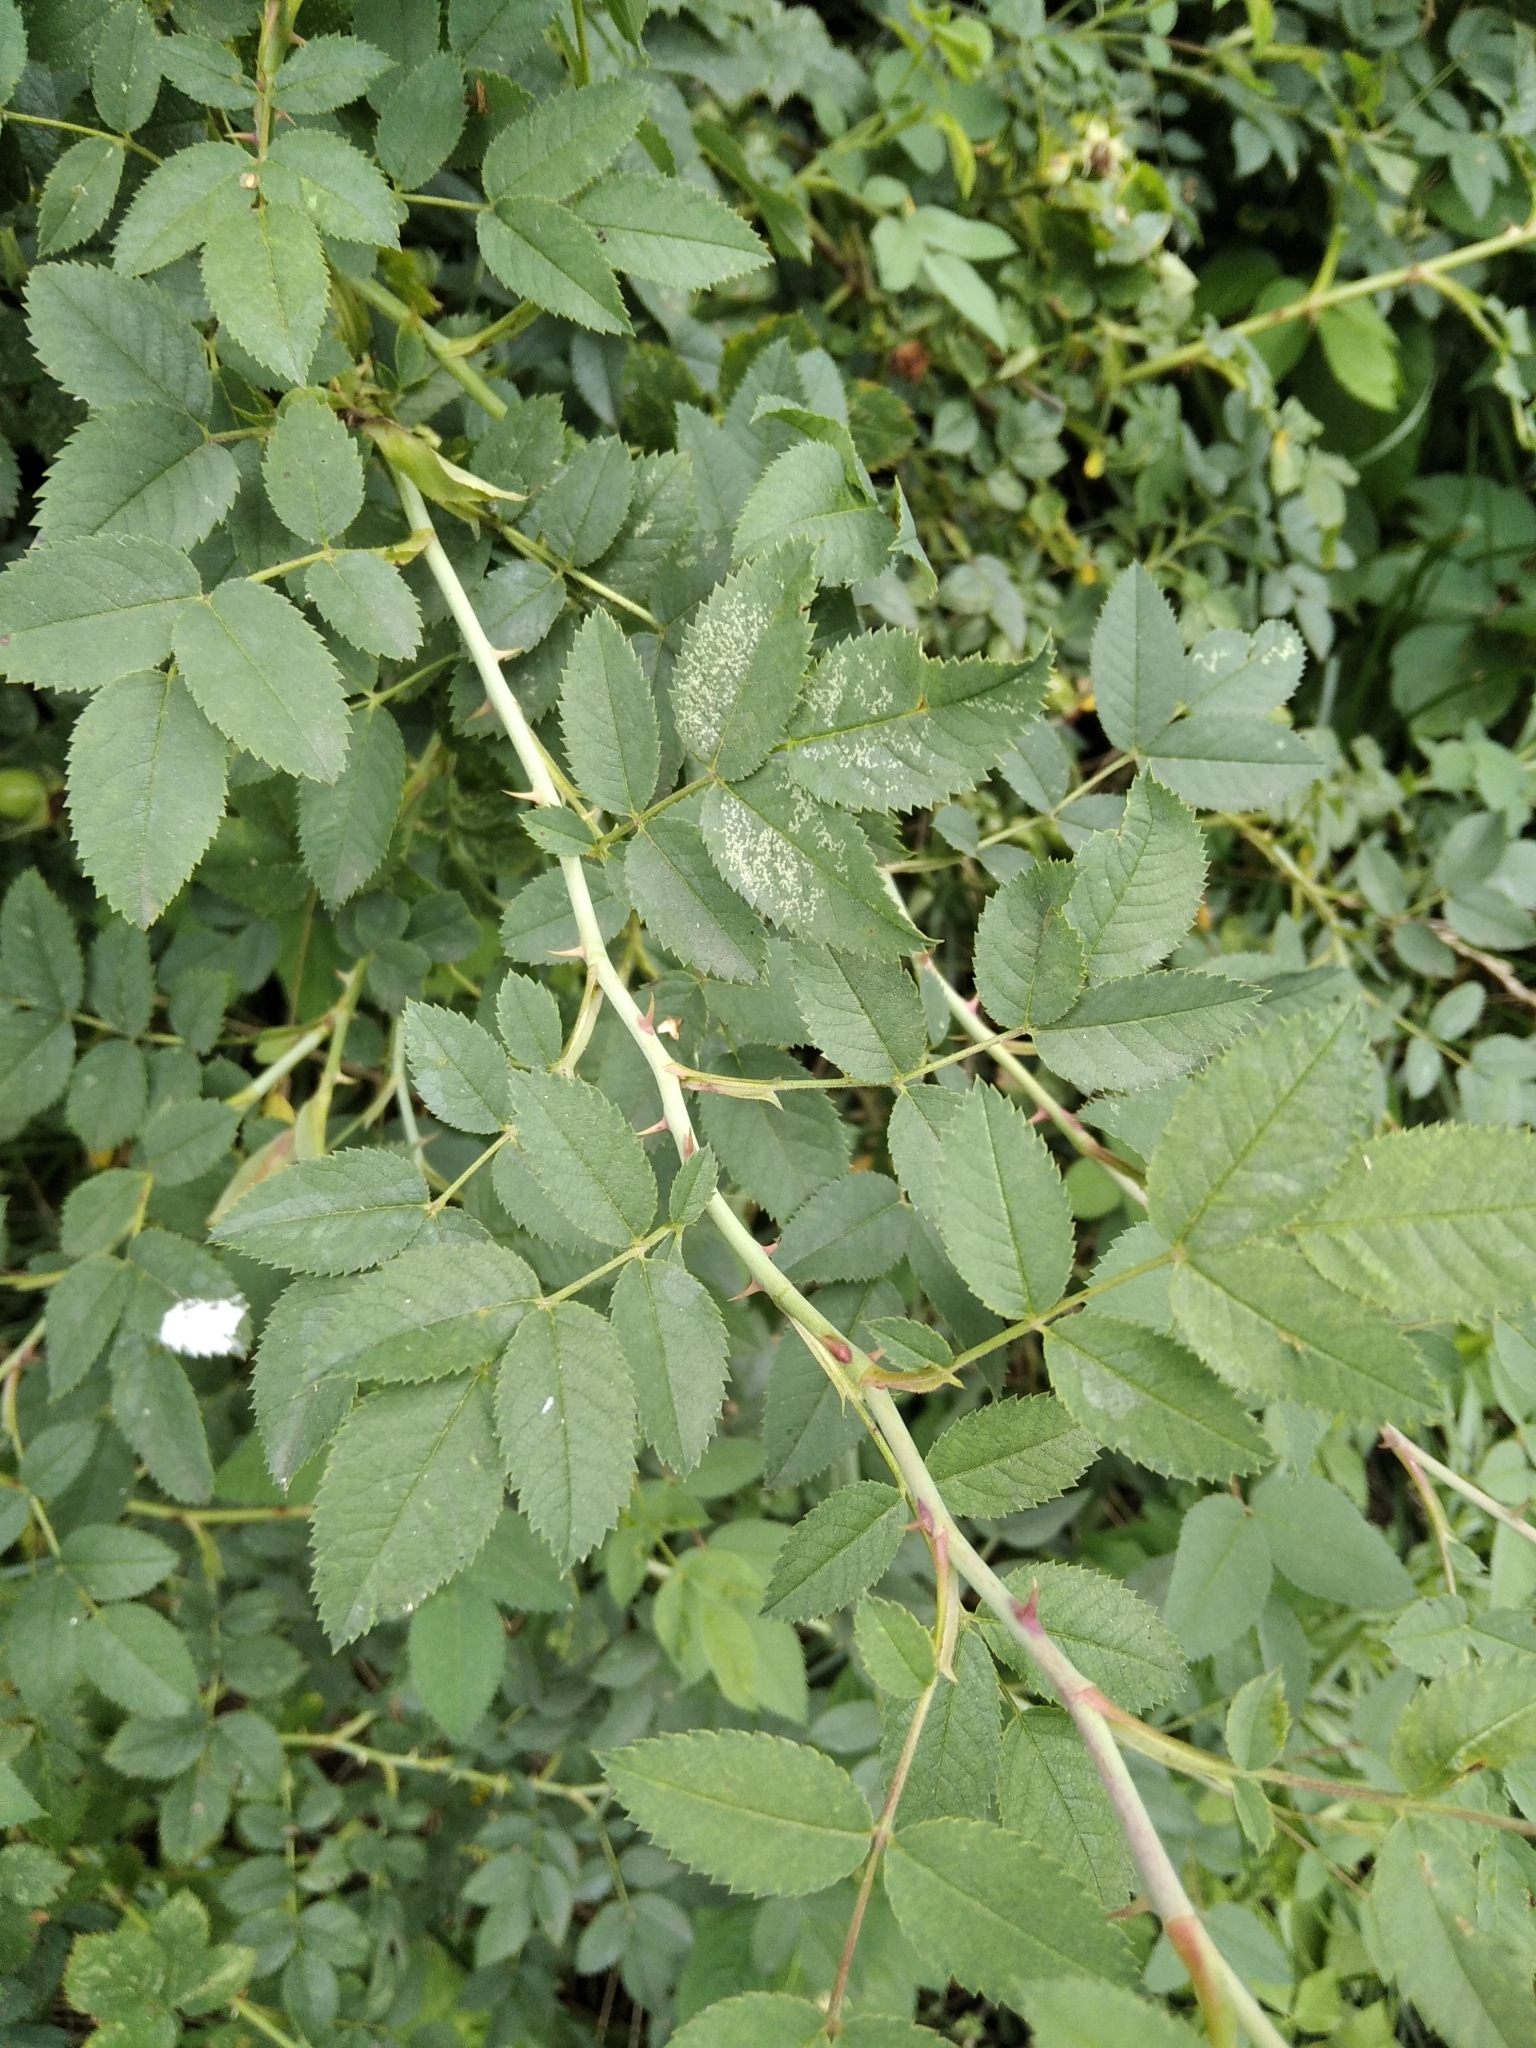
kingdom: Plantae
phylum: Tracheophyta
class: Magnoliopsida
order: Rosales
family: Rosaceae
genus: Rosa
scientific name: Rosa
